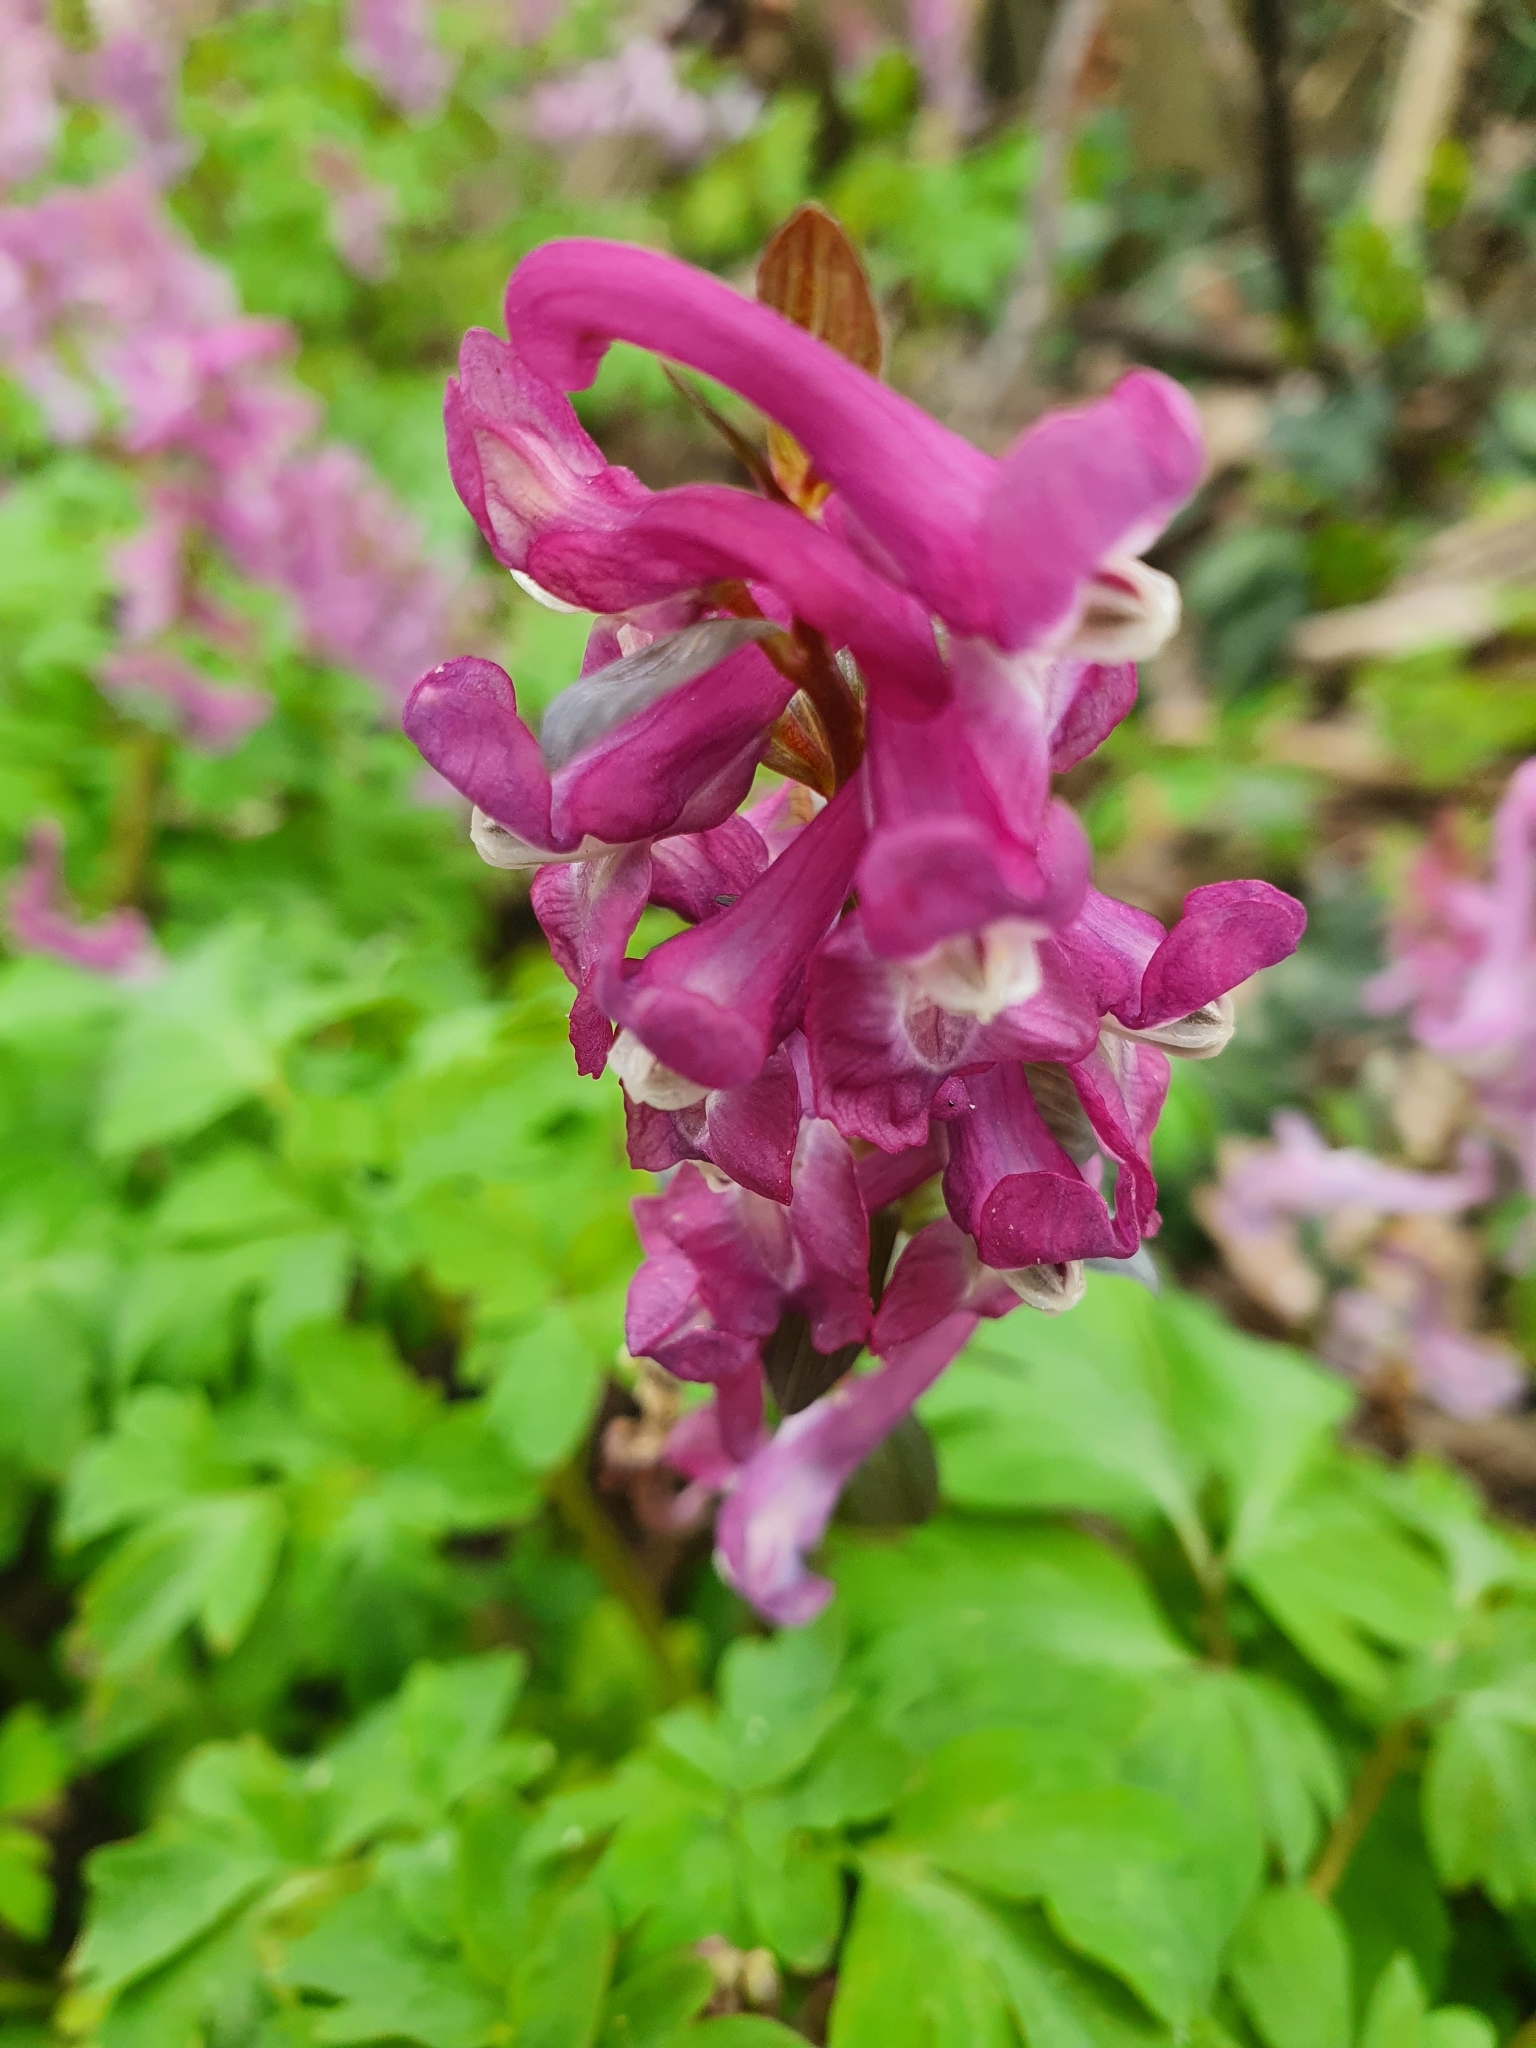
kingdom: Plantae
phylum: Tracheophyta
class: Magnoliopsida
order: Ranunculales
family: Papaveraceae
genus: Corydalis
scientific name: Corydalis cava
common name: Hollowroot
